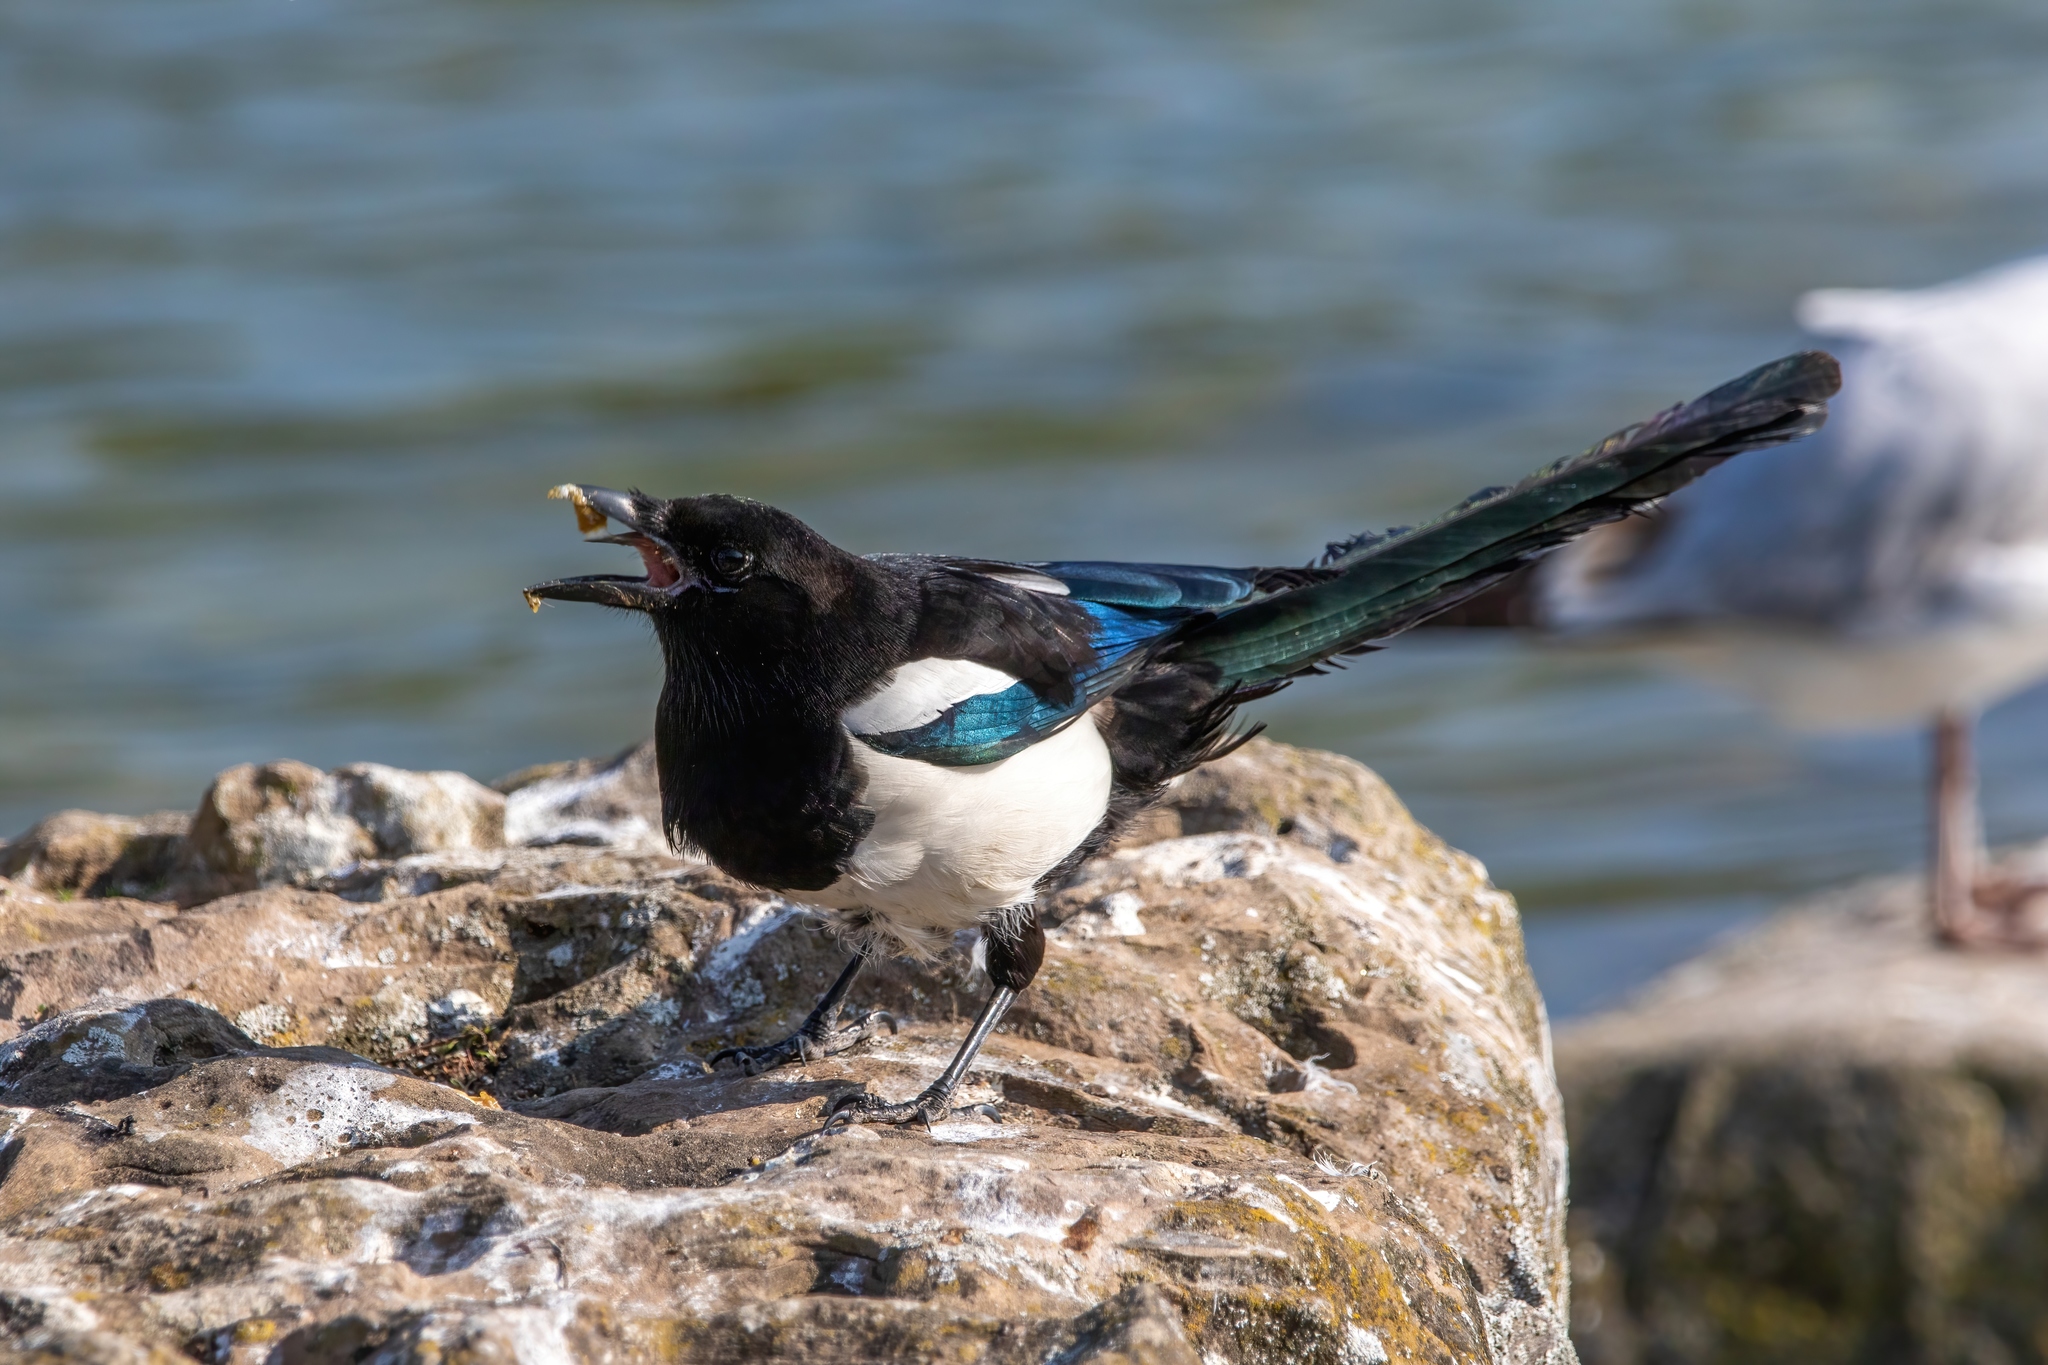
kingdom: Animalia
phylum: Chordata
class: Aves
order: Passeriformes
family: Corvidae
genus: Pica
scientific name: Pica pica
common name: Eurasian magpie
